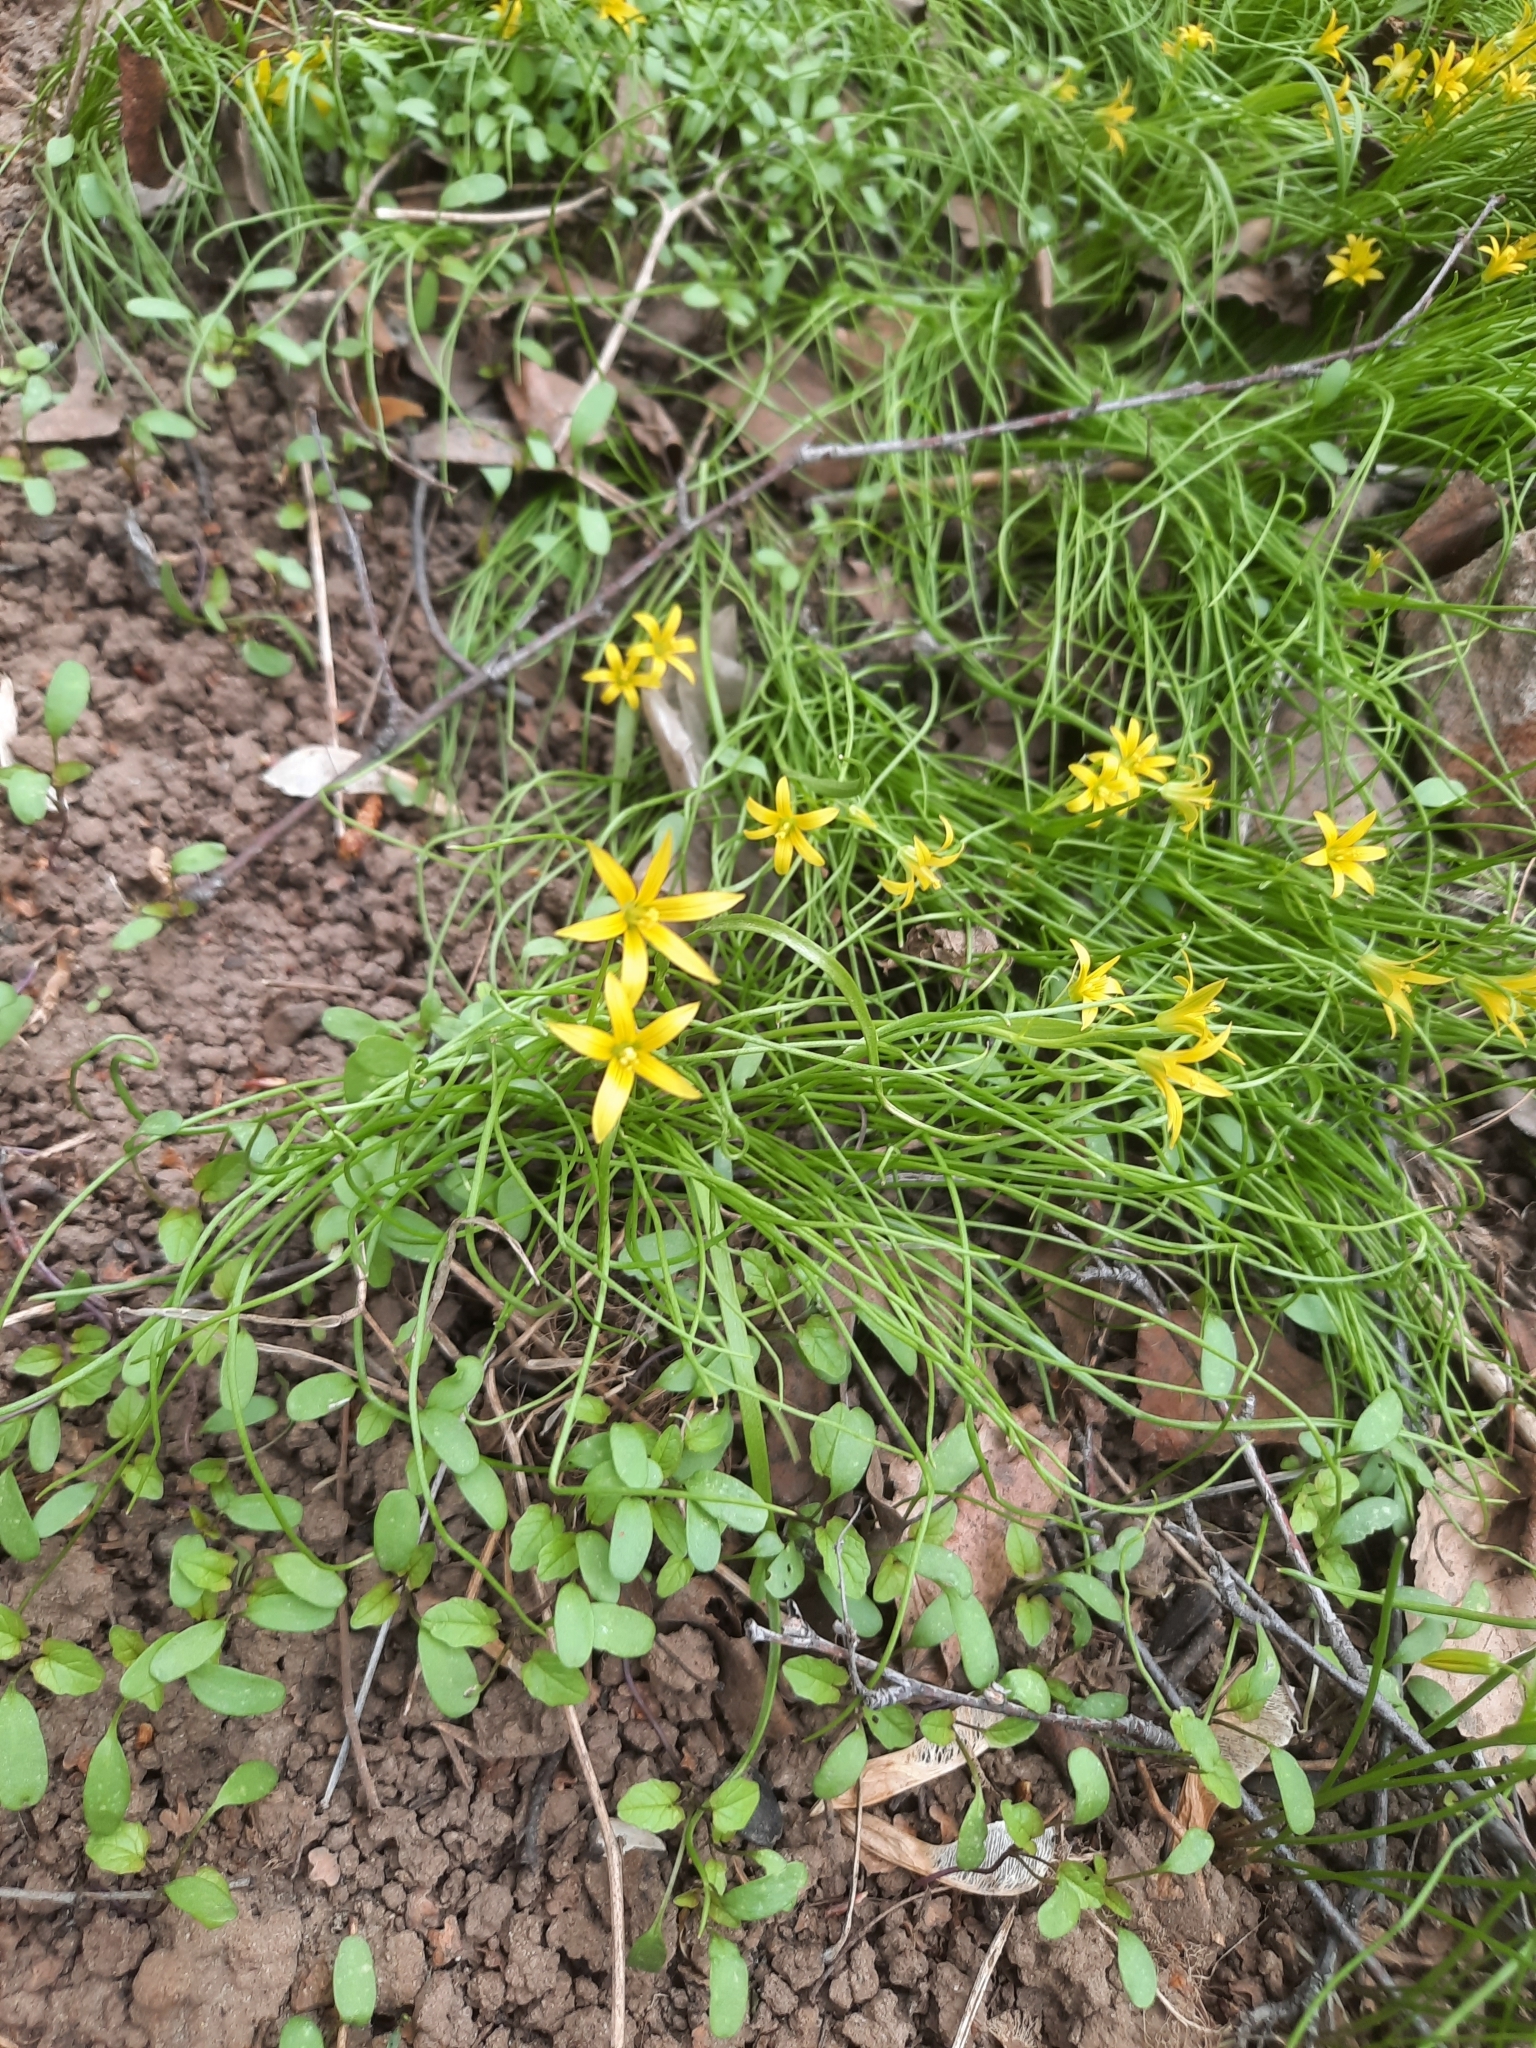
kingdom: Plantae
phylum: Tracheophyta
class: Liliopsida
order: Liliales
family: Liliaceae
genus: Gagea
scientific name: Gagea minima
